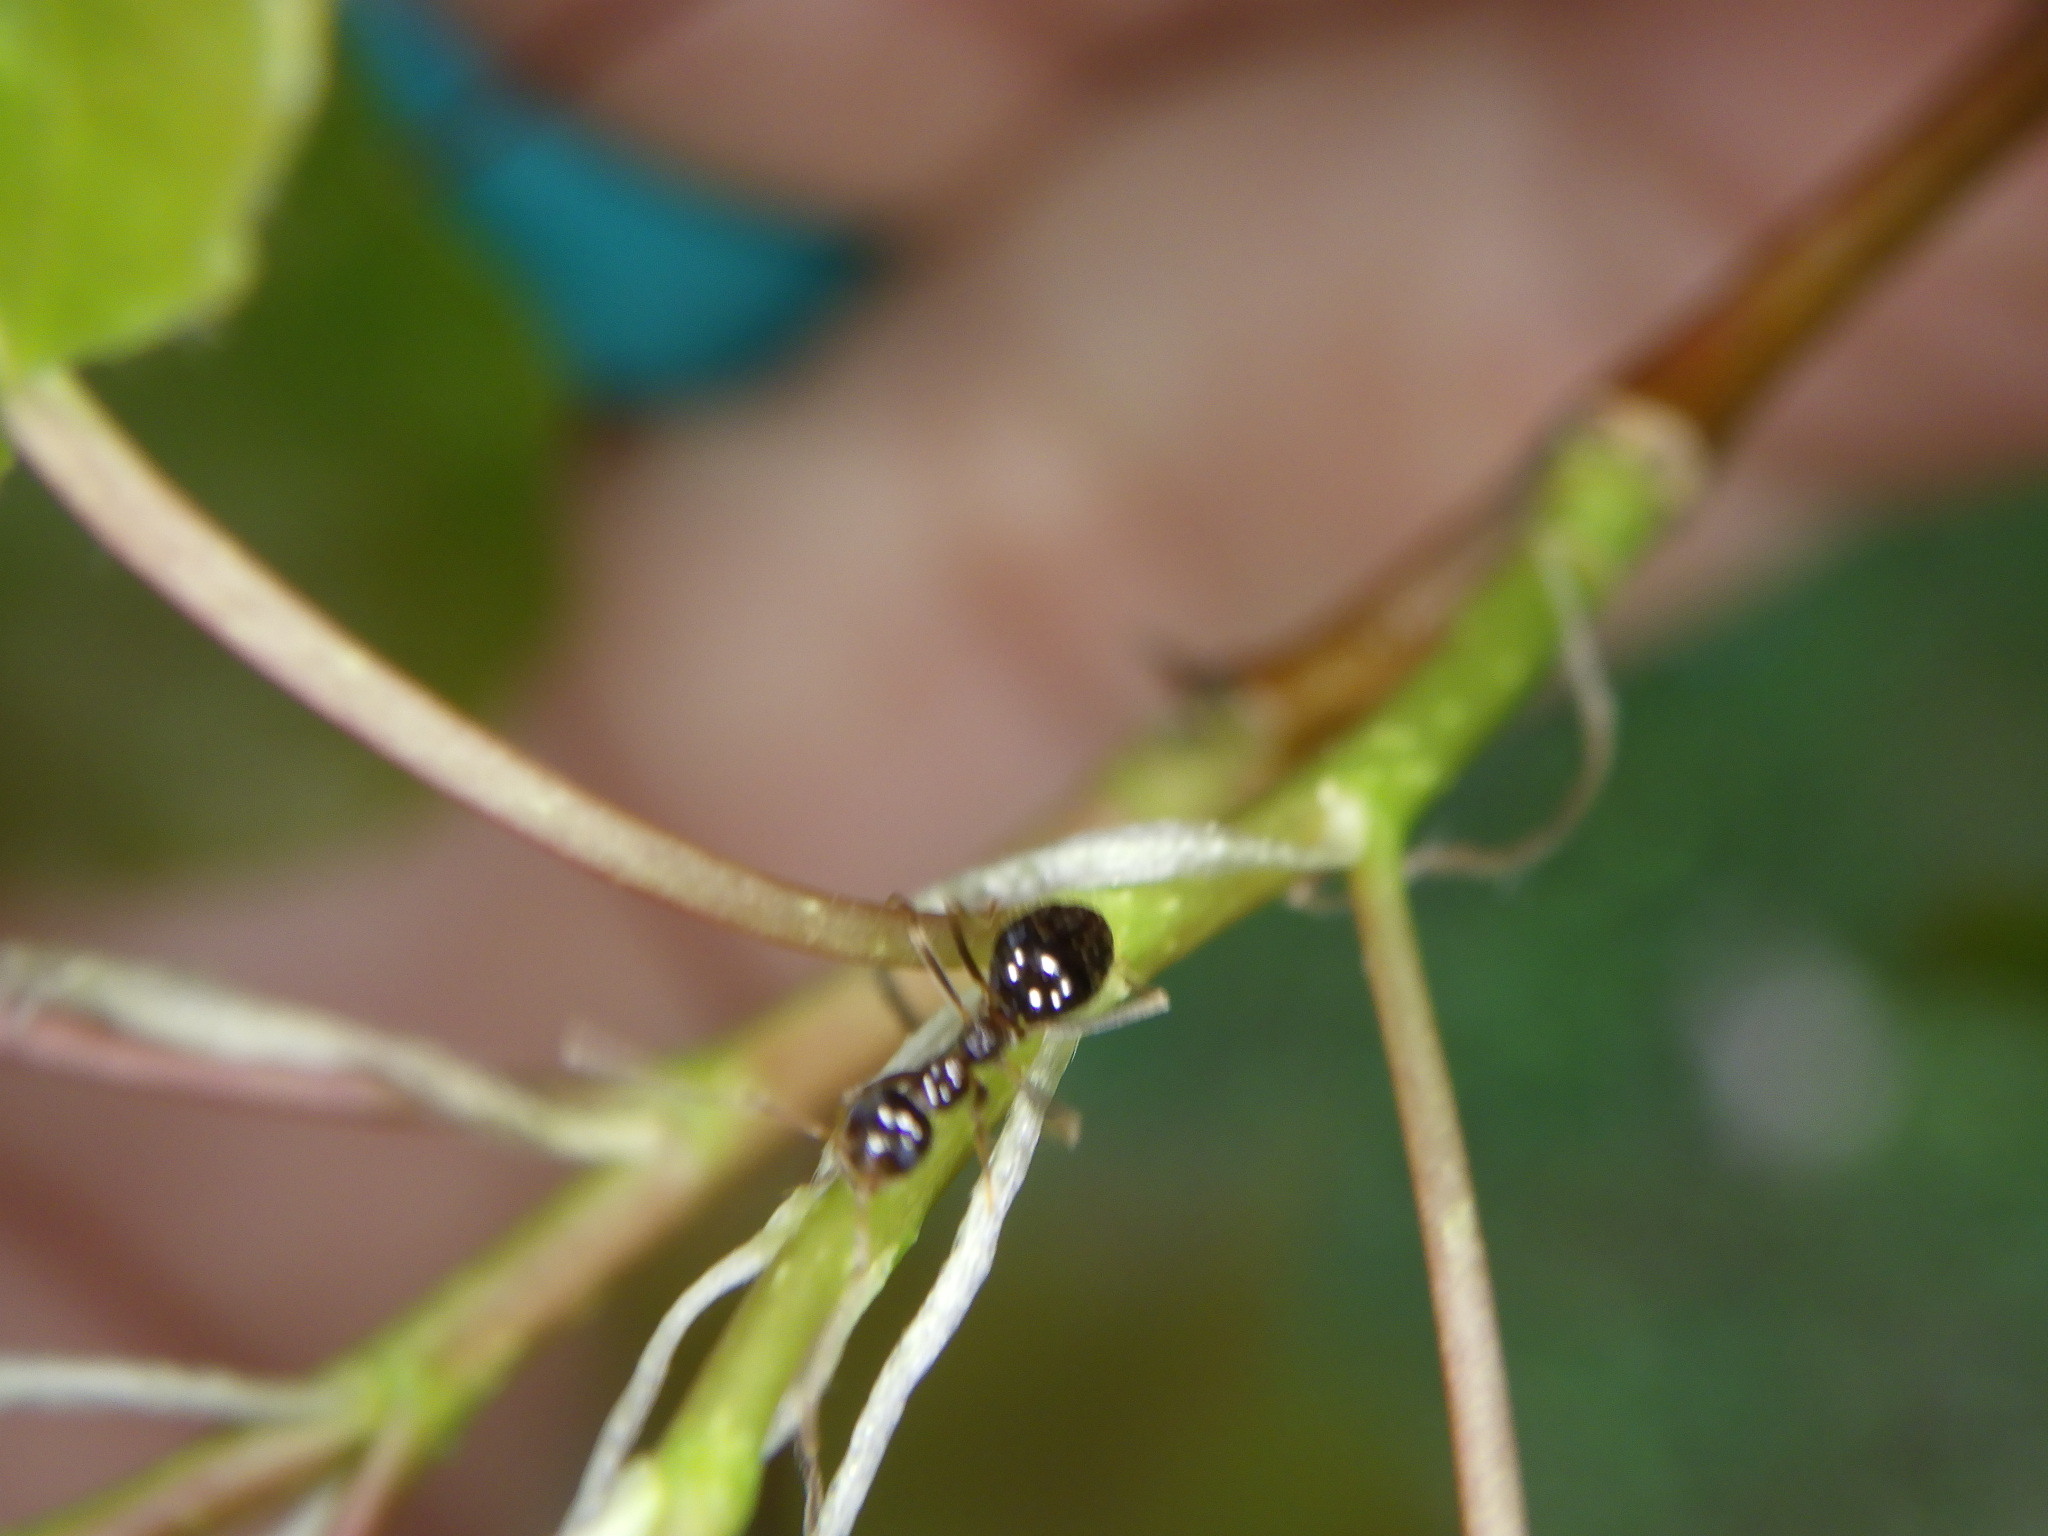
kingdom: Animalia
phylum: Arthropoda
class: Insecta
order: Hymenoptera
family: Formicidae
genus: Prenolepis
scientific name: Prenolepis imparis
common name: Small honey ant
